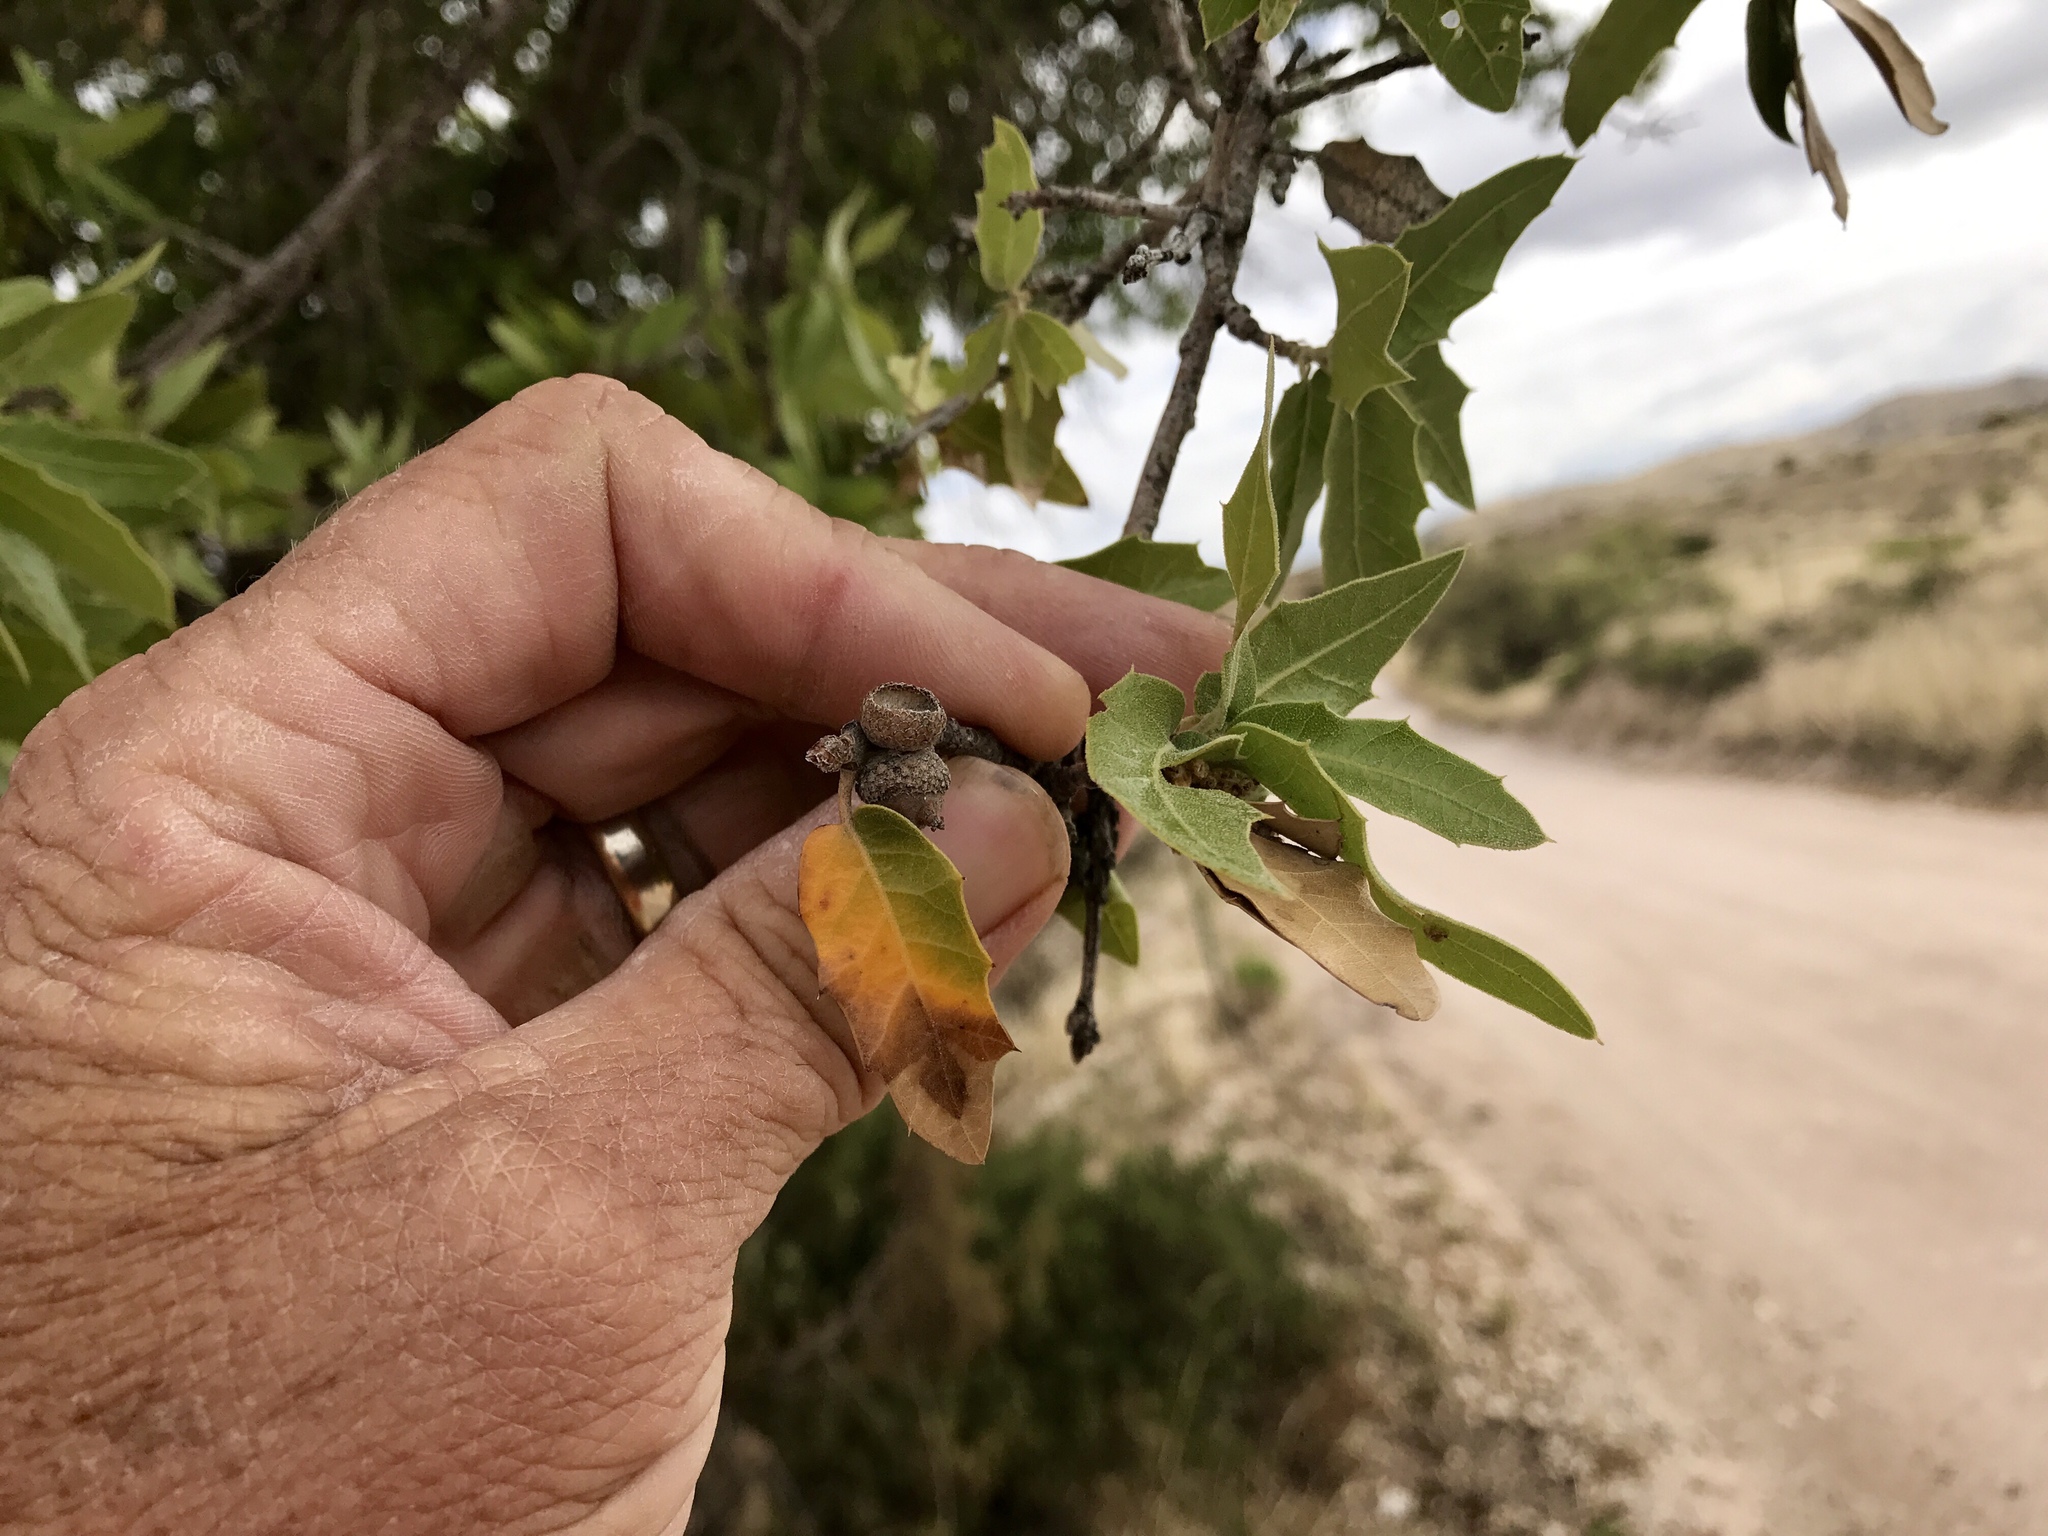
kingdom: Plantae
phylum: Tracheophyta
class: Magnoliopsida
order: Fagales
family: Fagaceae
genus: Quercus
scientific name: Quercus emoryi
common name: Emory oak
